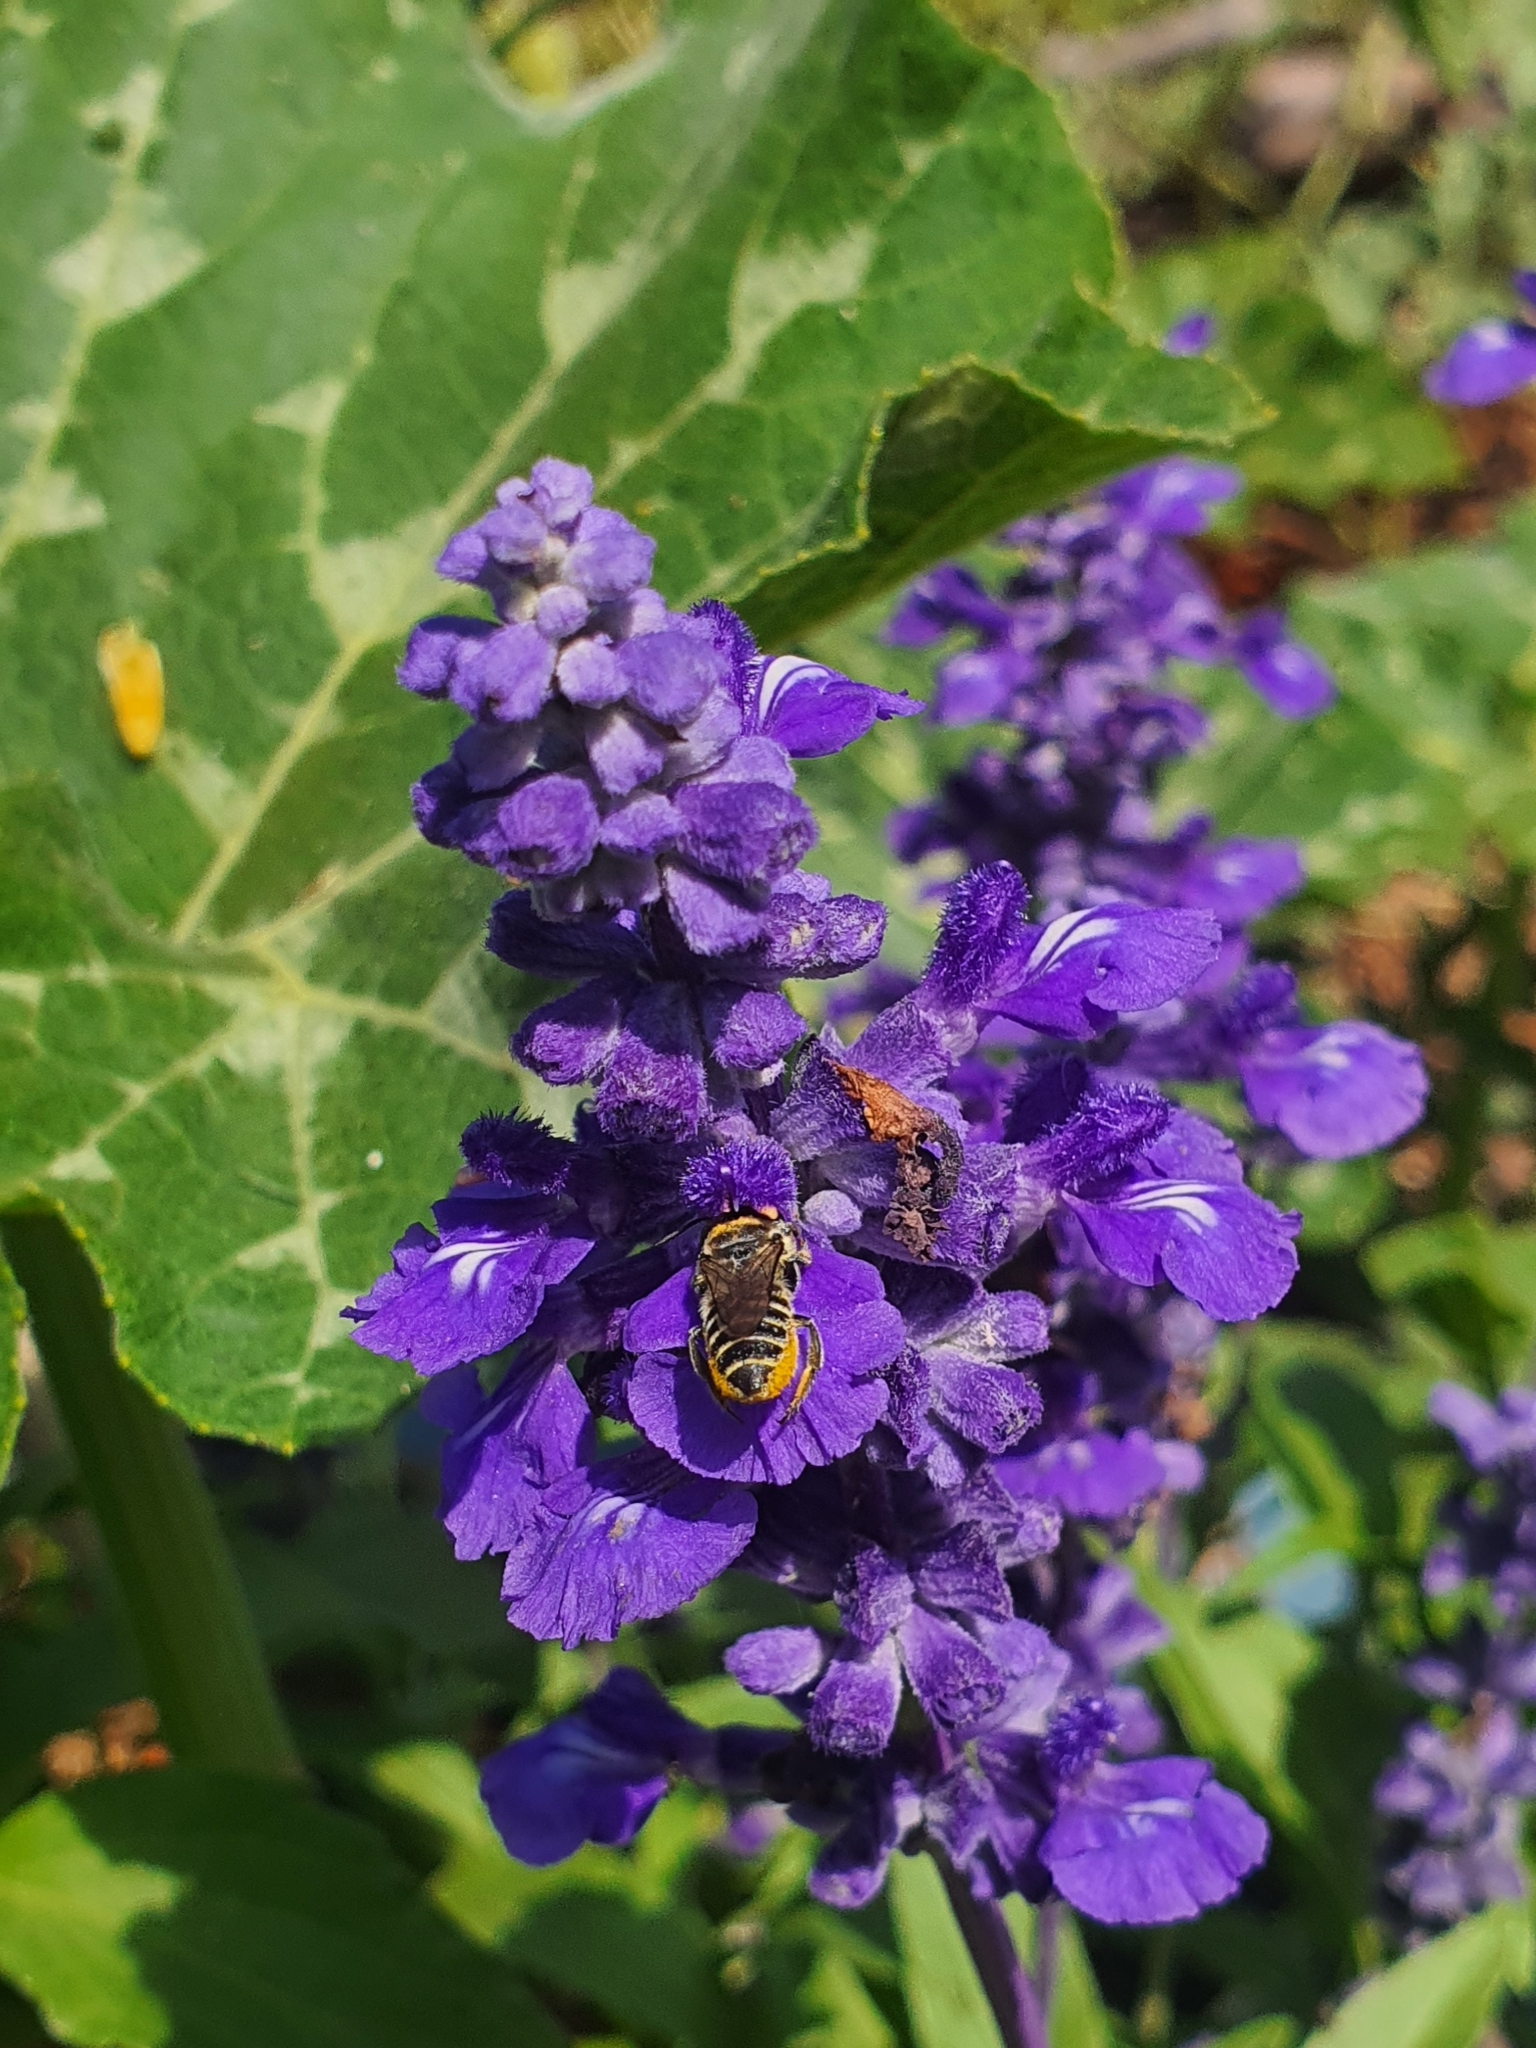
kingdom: Animalia
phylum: Arthropoda
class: Insecta
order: Hymenoptera
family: Megachilidae
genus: Megachile
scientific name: Megachile serricauda
